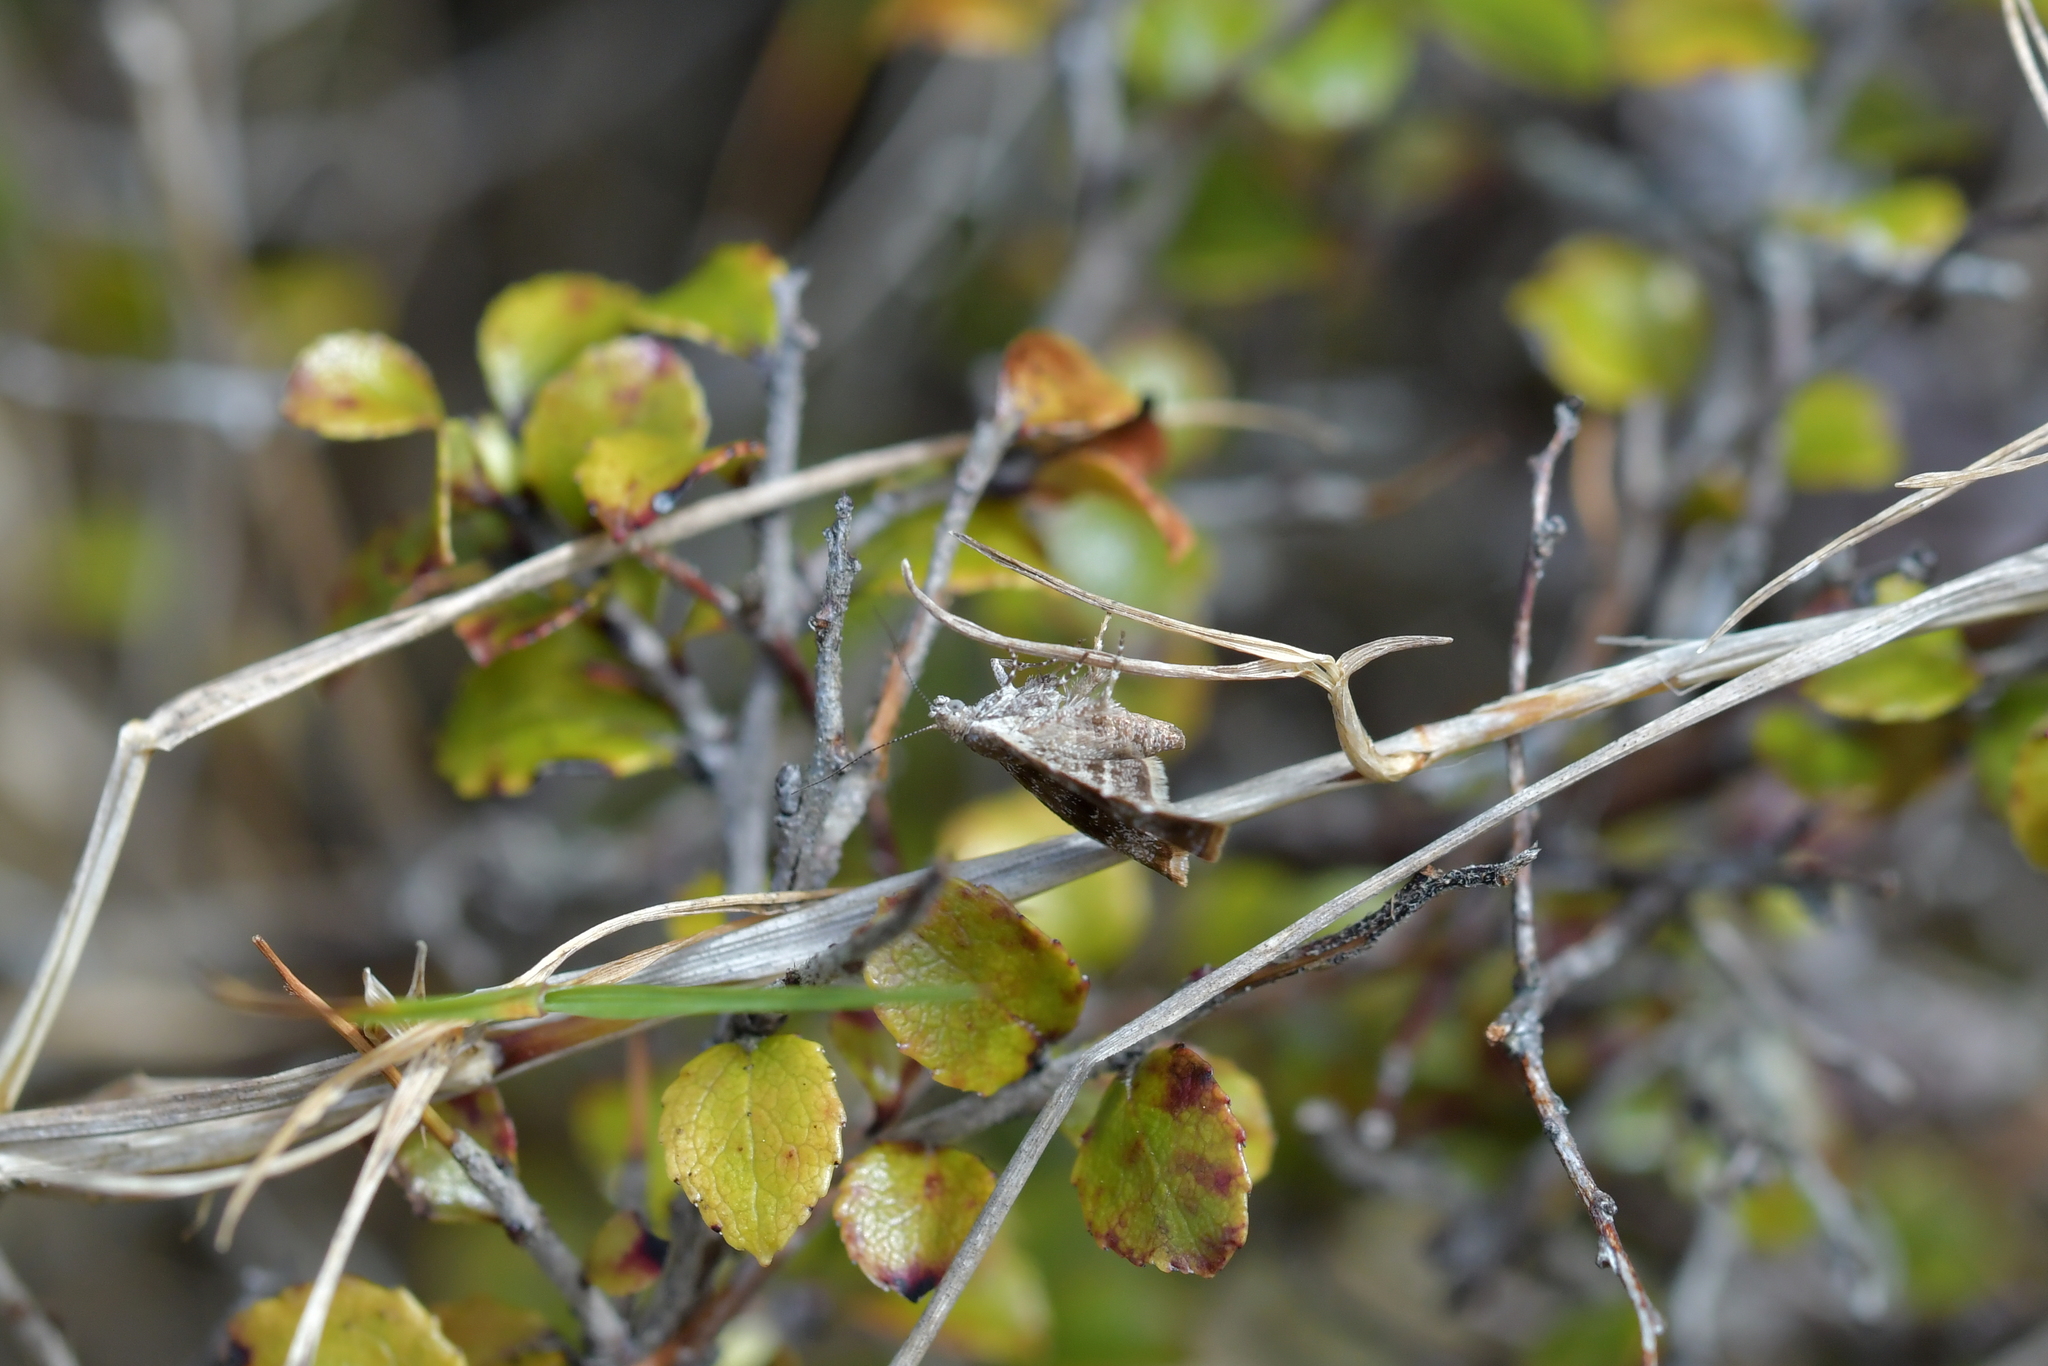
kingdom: Animalia
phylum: Arthropoda
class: Insecta
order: Lepidoptera
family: Choreutidae
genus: Asterivora
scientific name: Asterivora colpota
